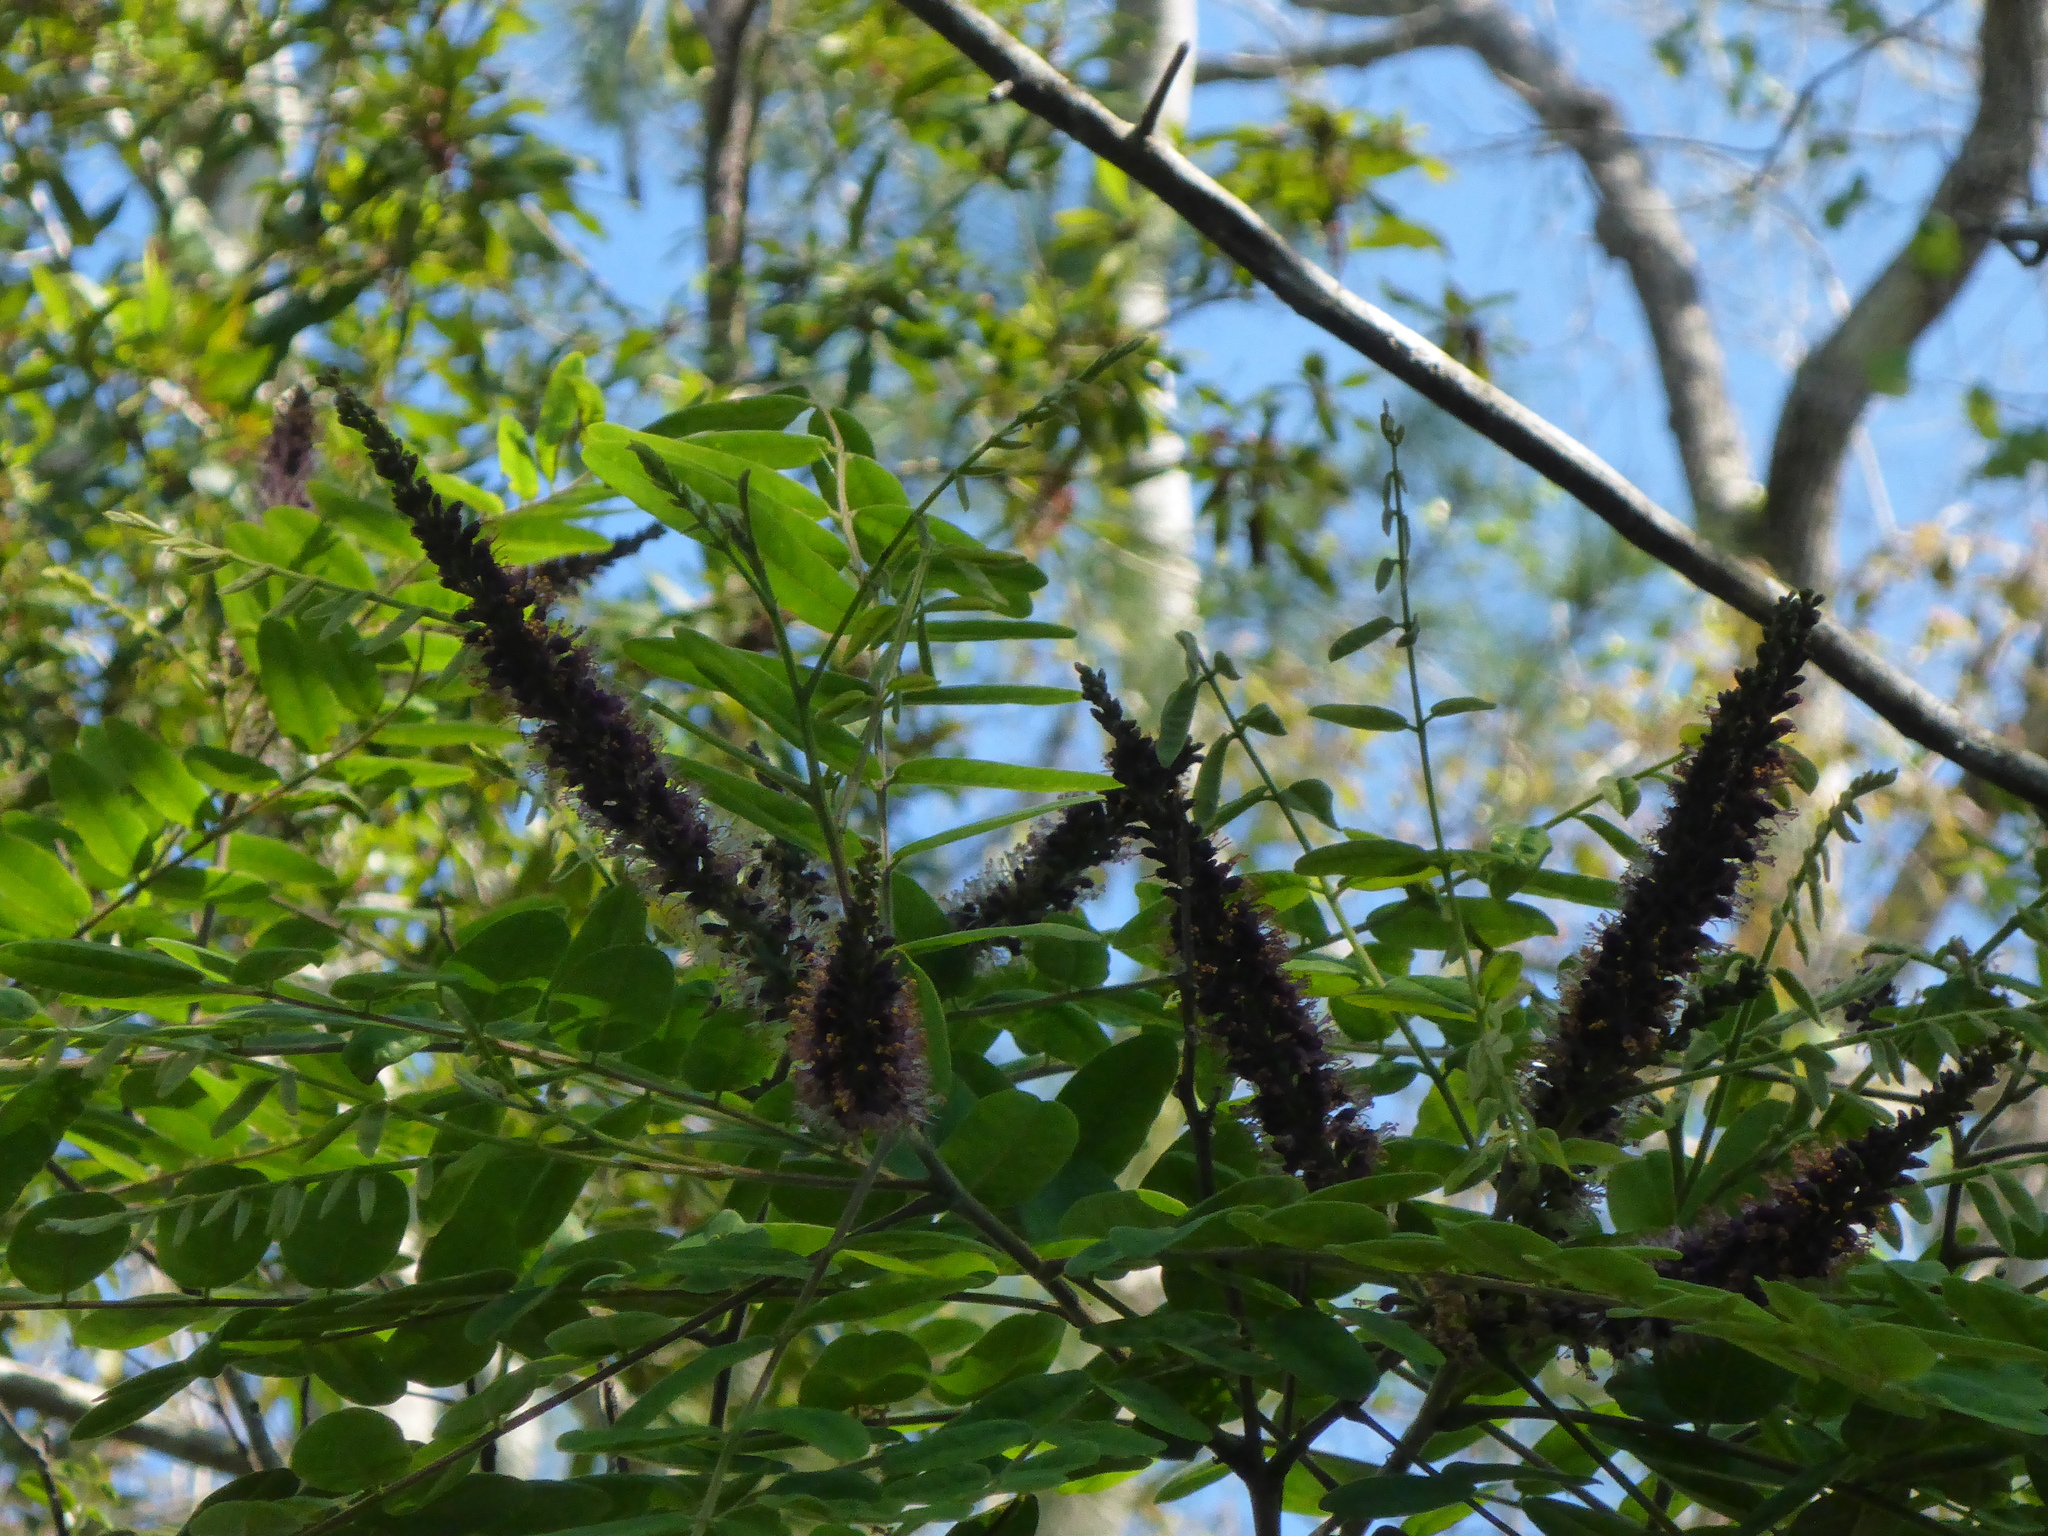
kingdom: Plantae
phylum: Tracheophyta
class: Magnoliopsida
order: Fabales
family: Fabaceae
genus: Amorpha
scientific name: Amorpha fruticosa
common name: False indigo
